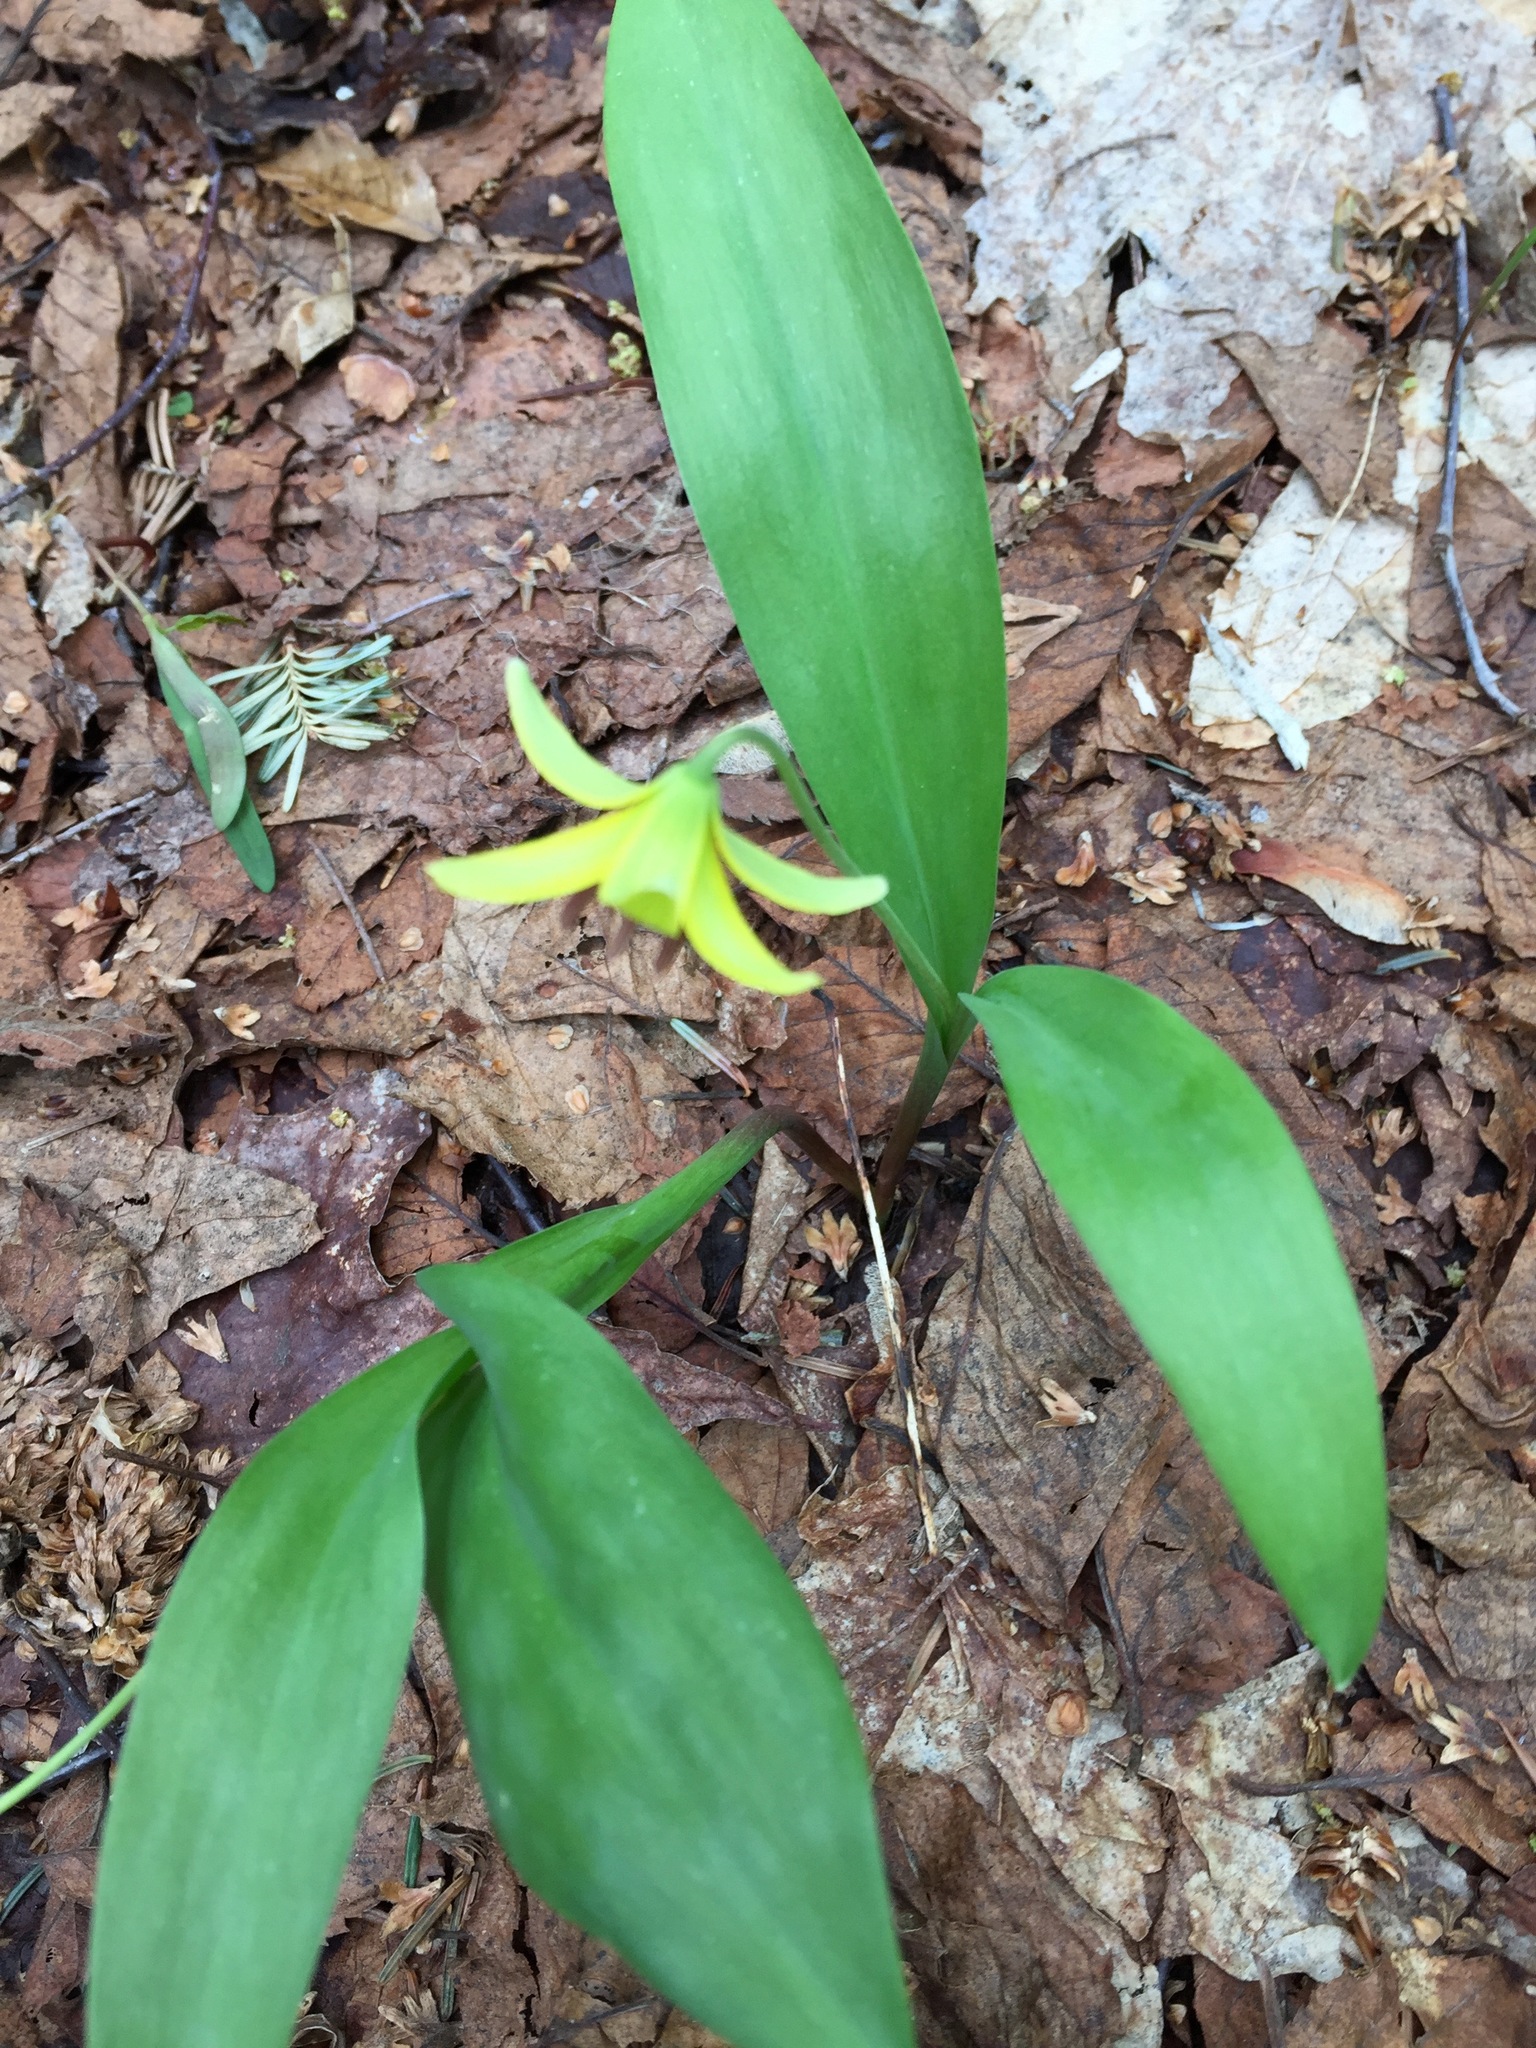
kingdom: Plantae
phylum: Tracheophyta
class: Liliopsida
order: Liliales
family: Liliaceae
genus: Erythronium
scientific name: Erythronium americanum
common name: Yellow adder's-tongue
